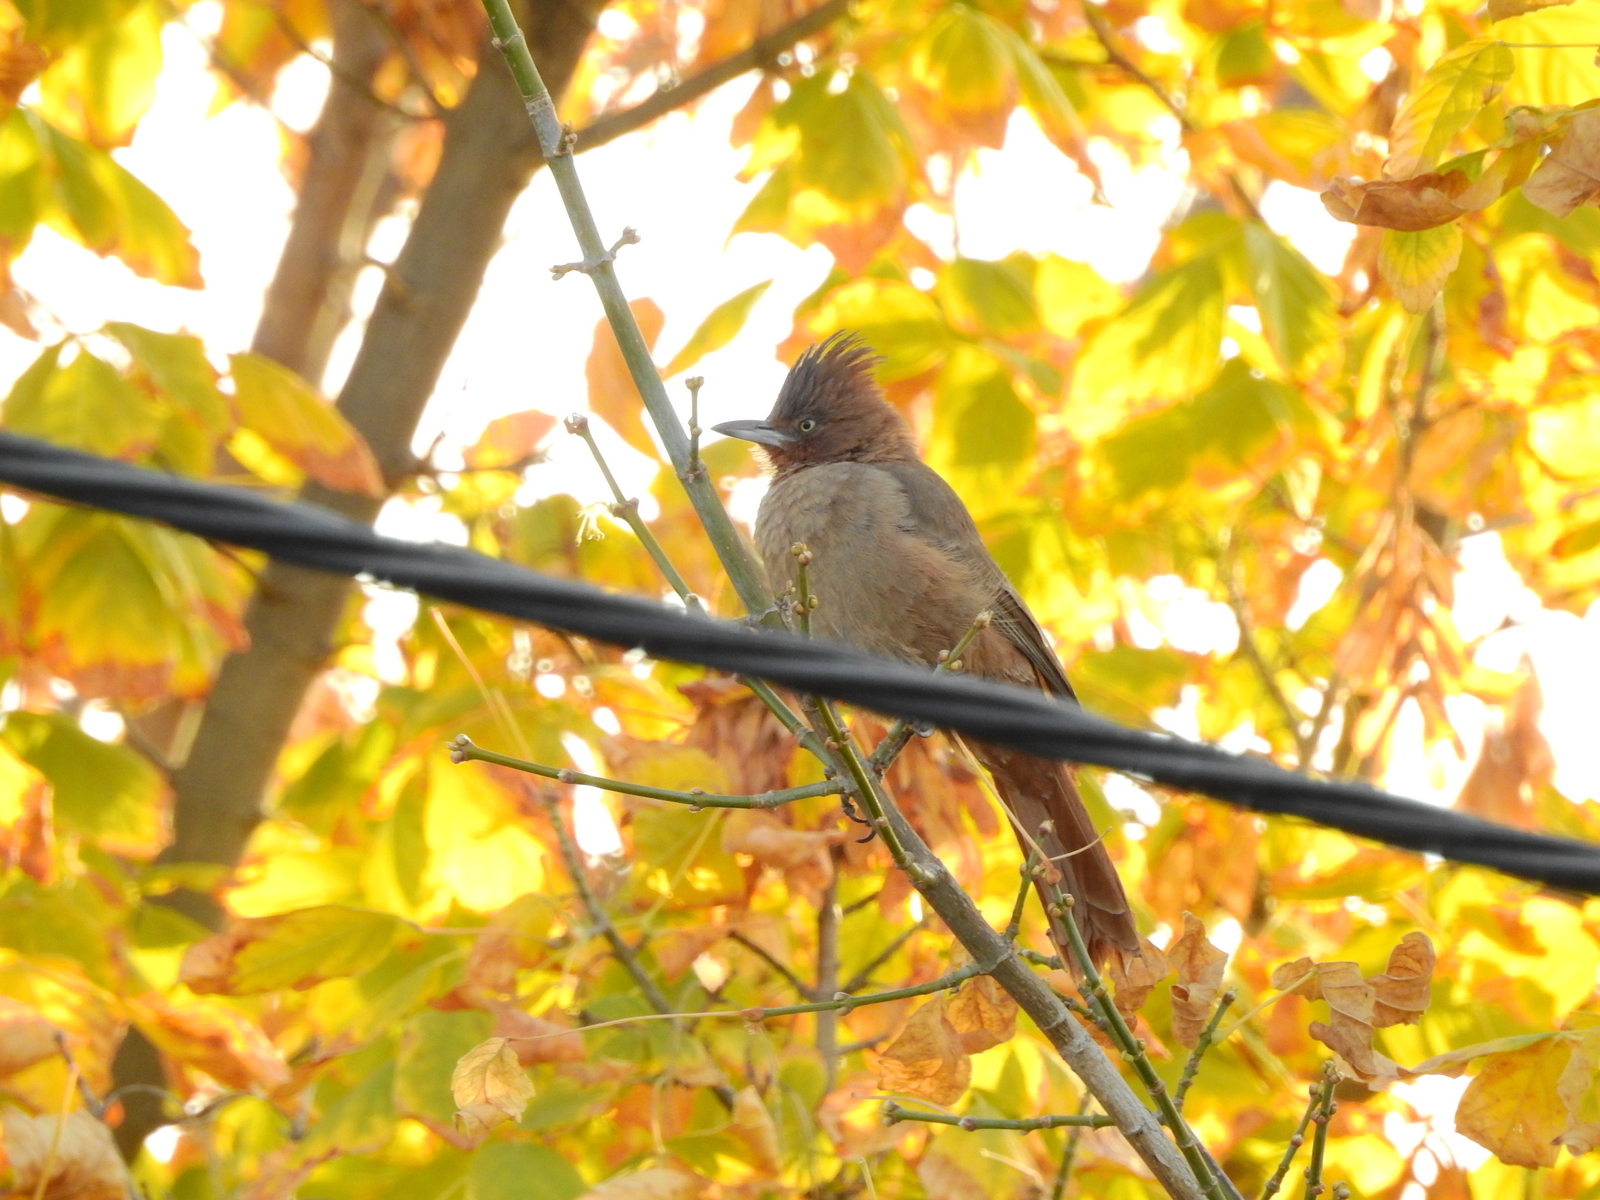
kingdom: Animalia
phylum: Chordata
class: Aves
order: Passeriformes
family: Furnariidae
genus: Pseudoseisura
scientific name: Pseudoseisura lophotes
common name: Brown cacholote
